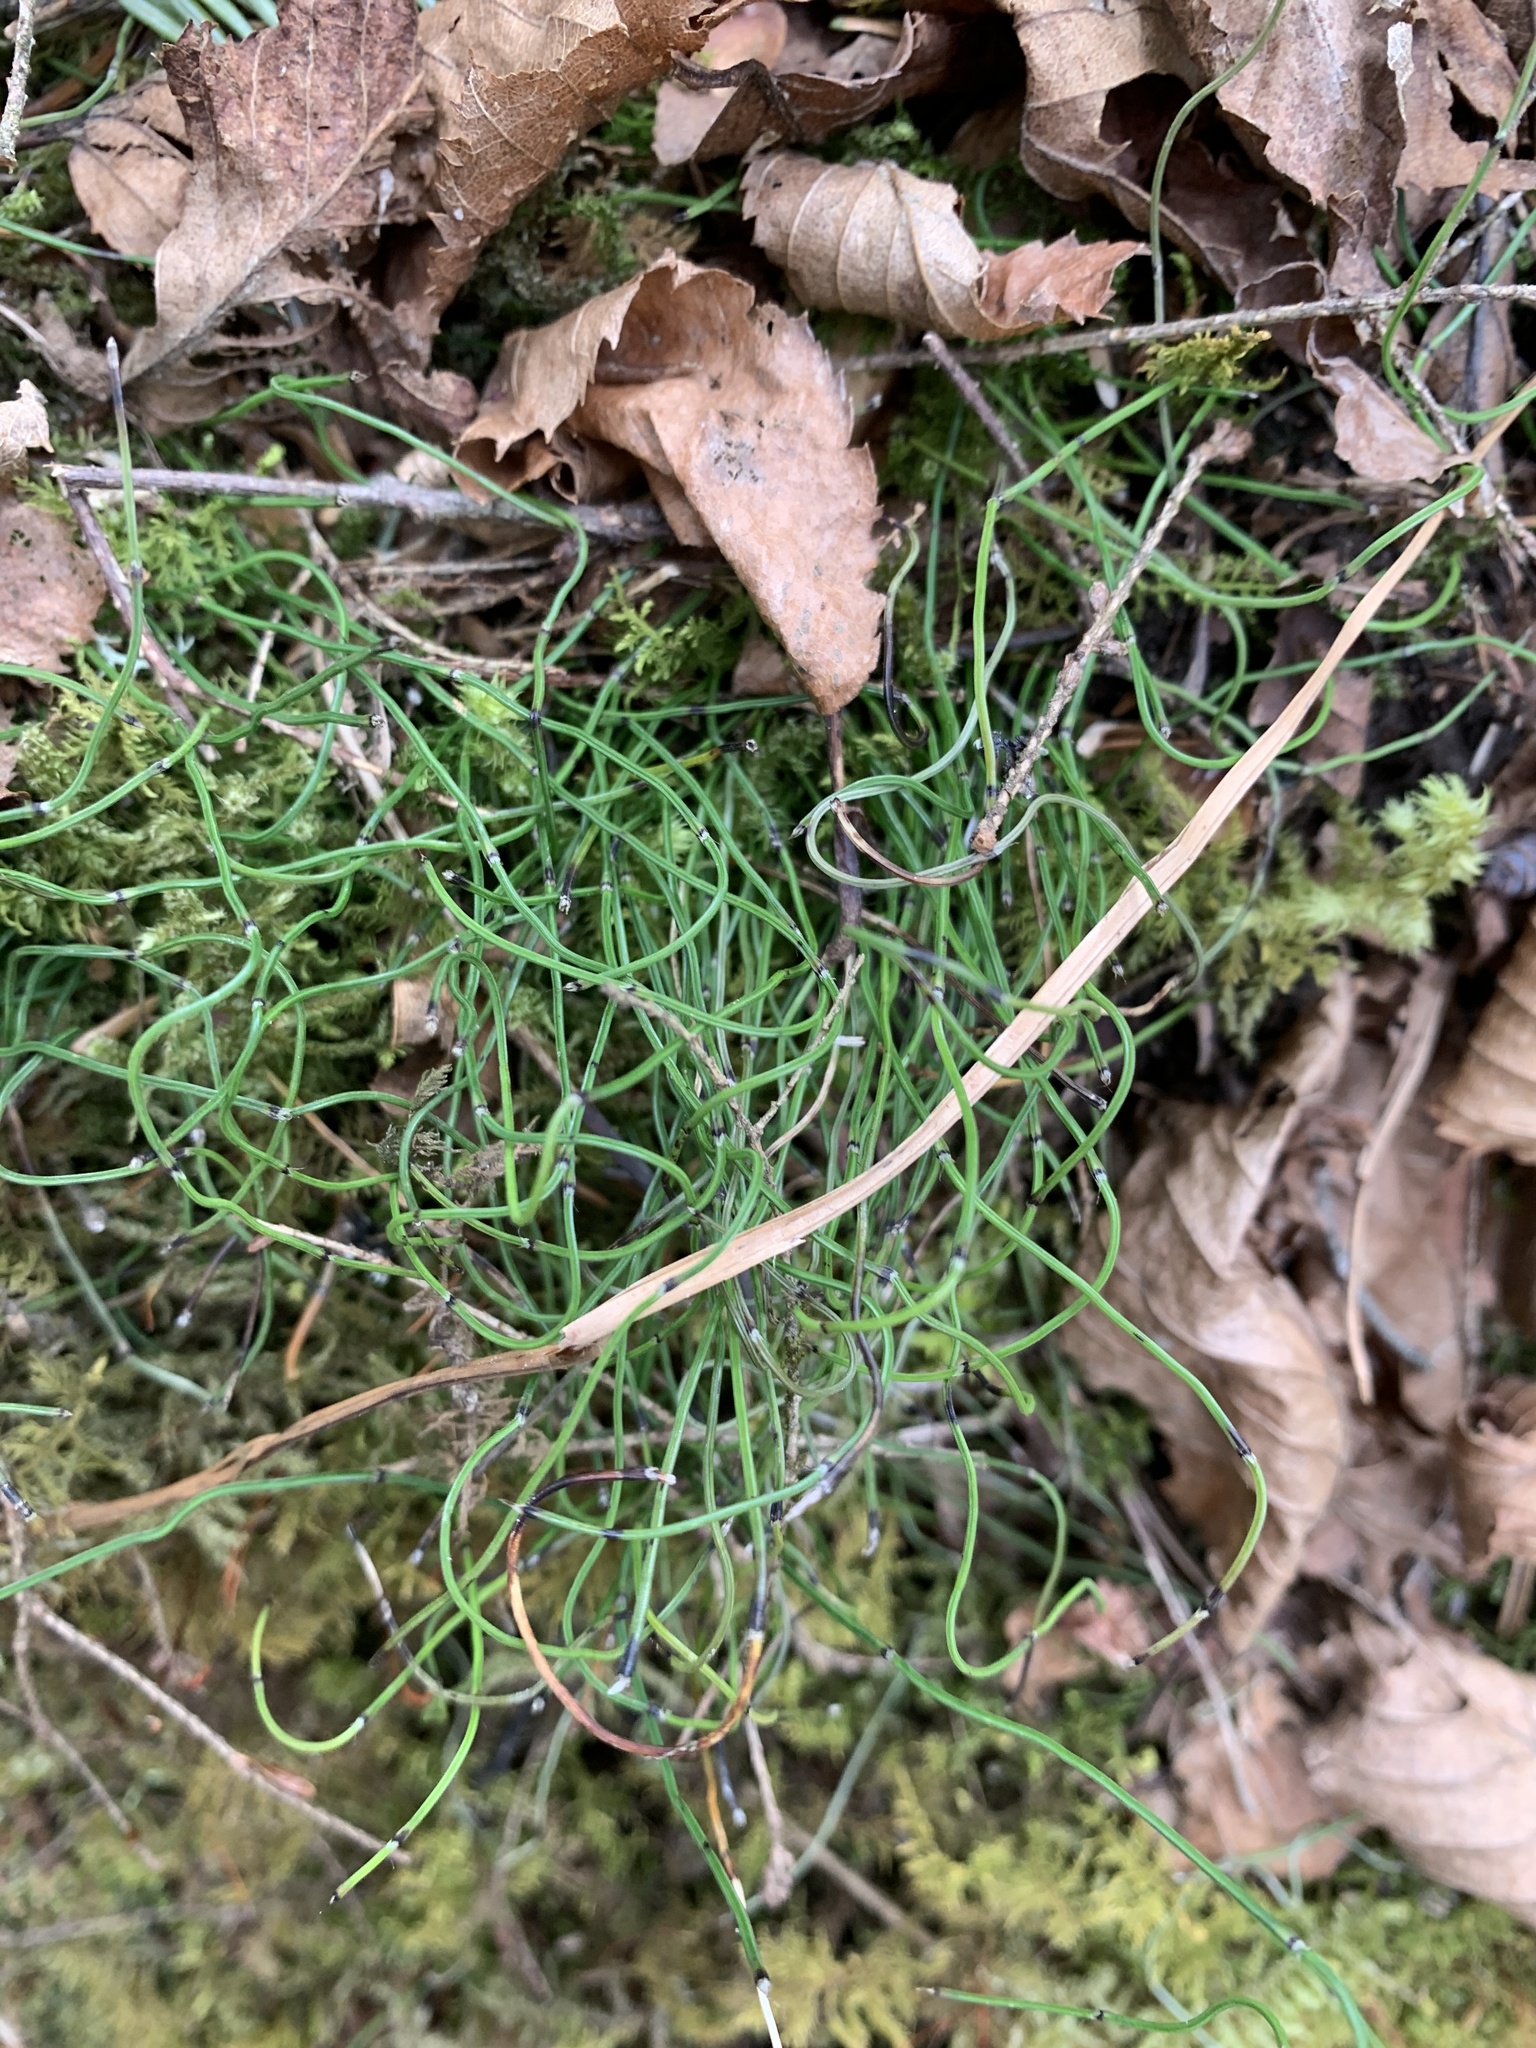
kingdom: Plantae
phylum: Tracheophyta
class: Polypodiopsida
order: Equisetales
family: Equisetaceae
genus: Equisetum
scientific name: Equisetum scirpoides
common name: Delicate horsetail
